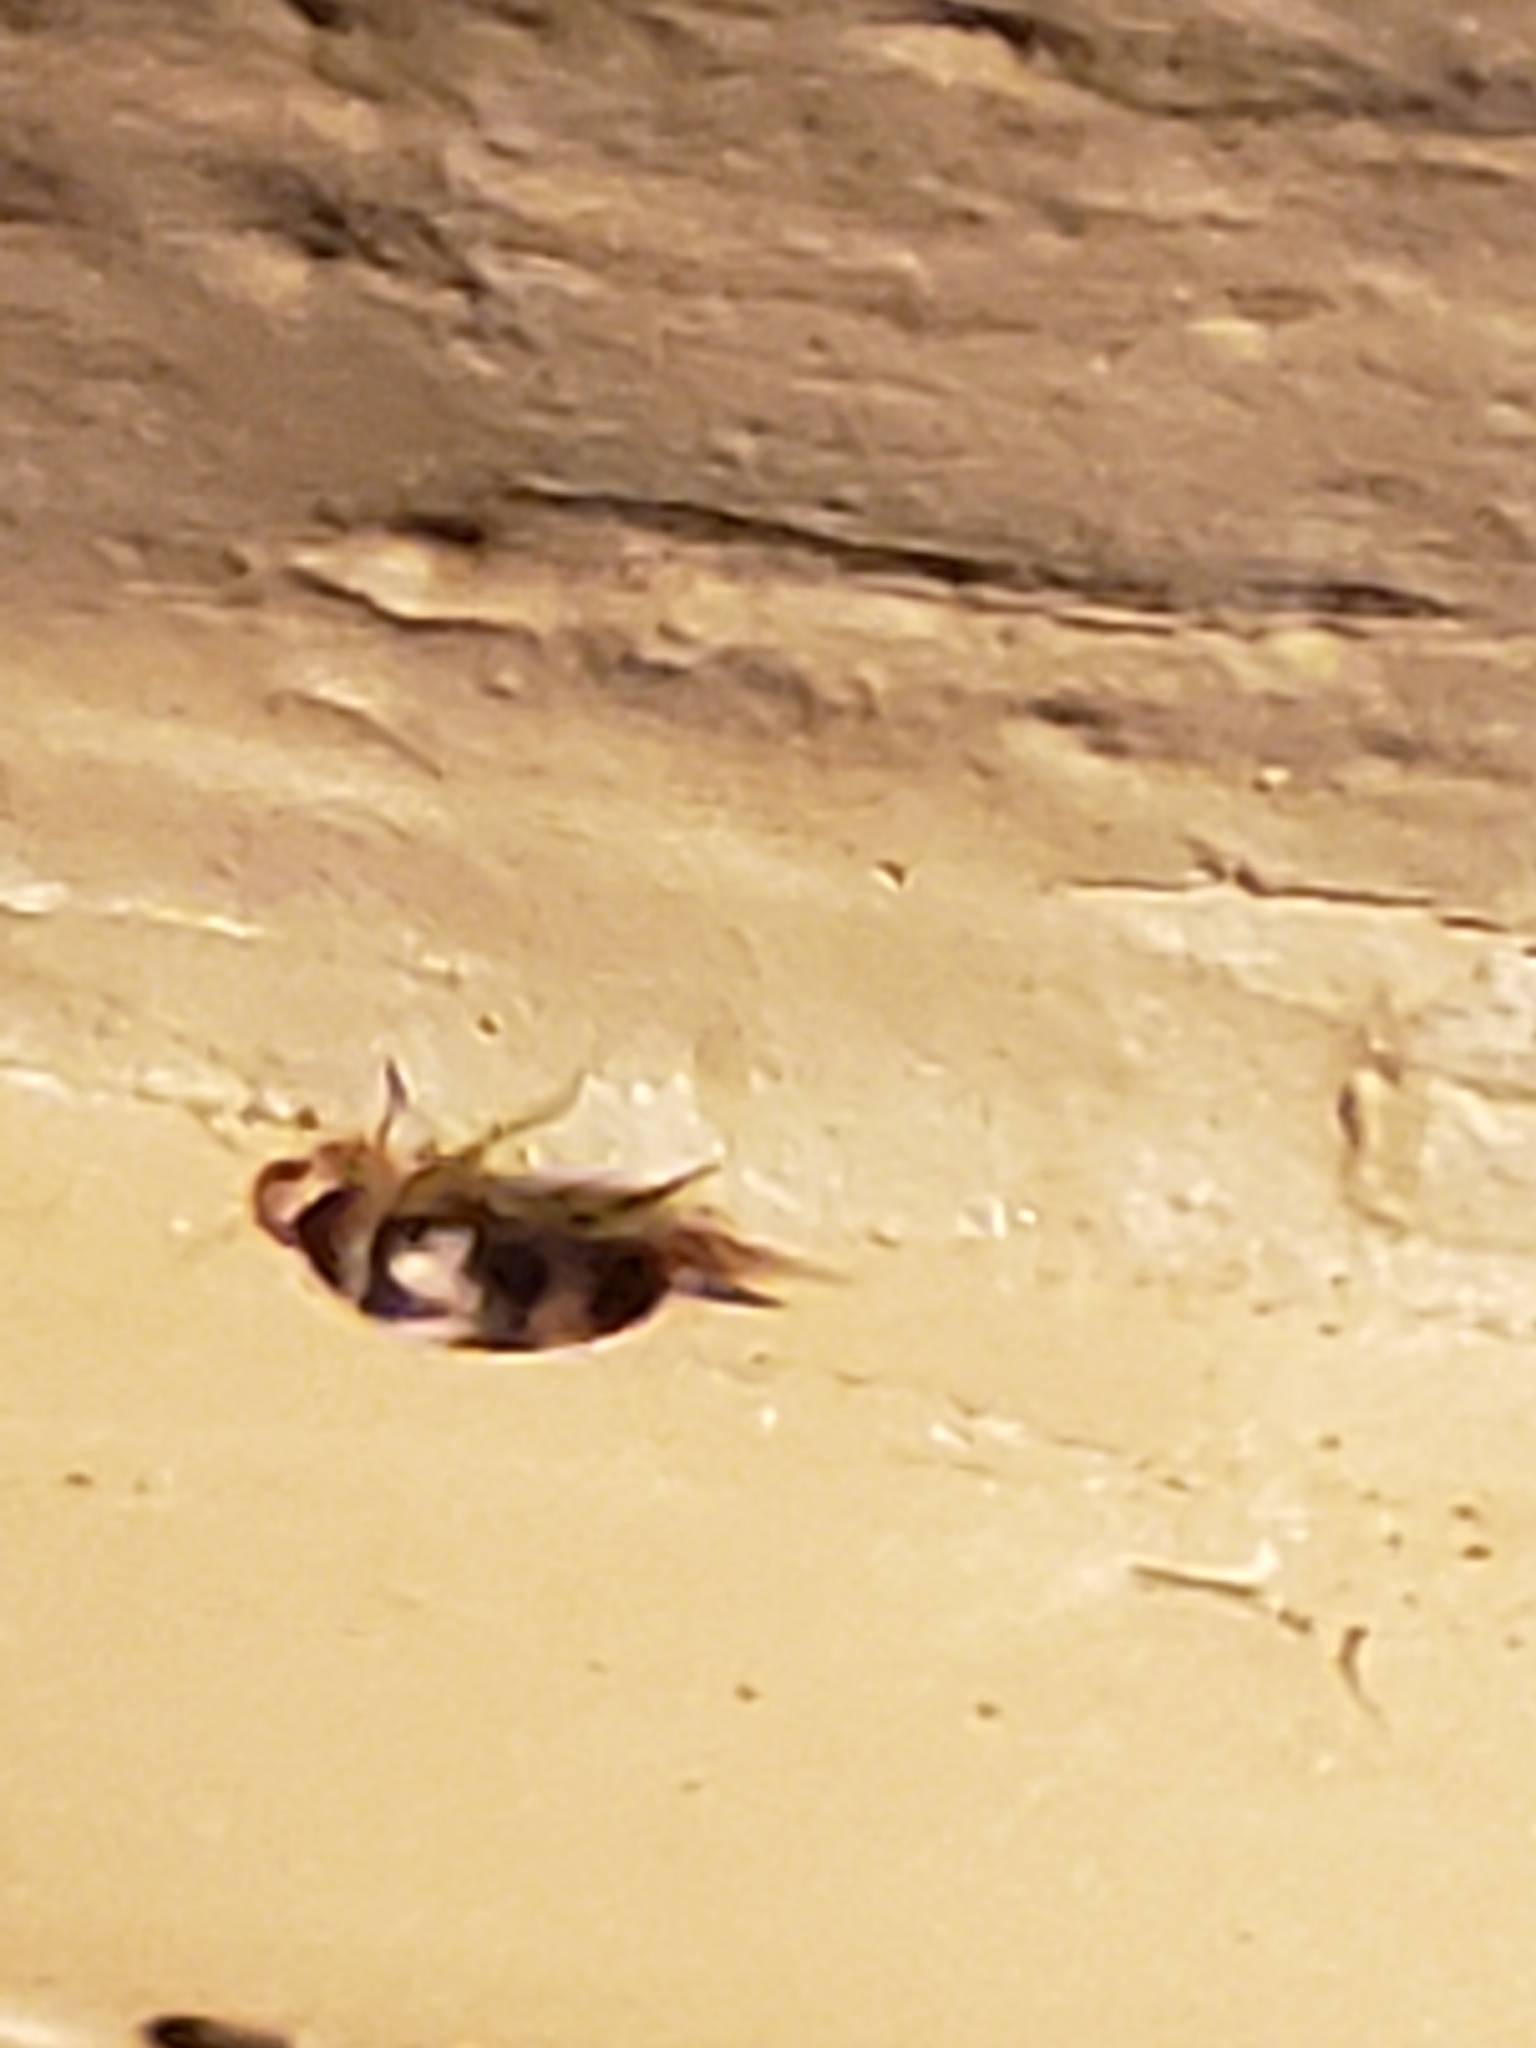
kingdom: Animalia
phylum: Arthropoda
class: Insecta
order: Coleoptera
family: Mordellidae
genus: Mordellistena
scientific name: Mordellistena trifasciata
